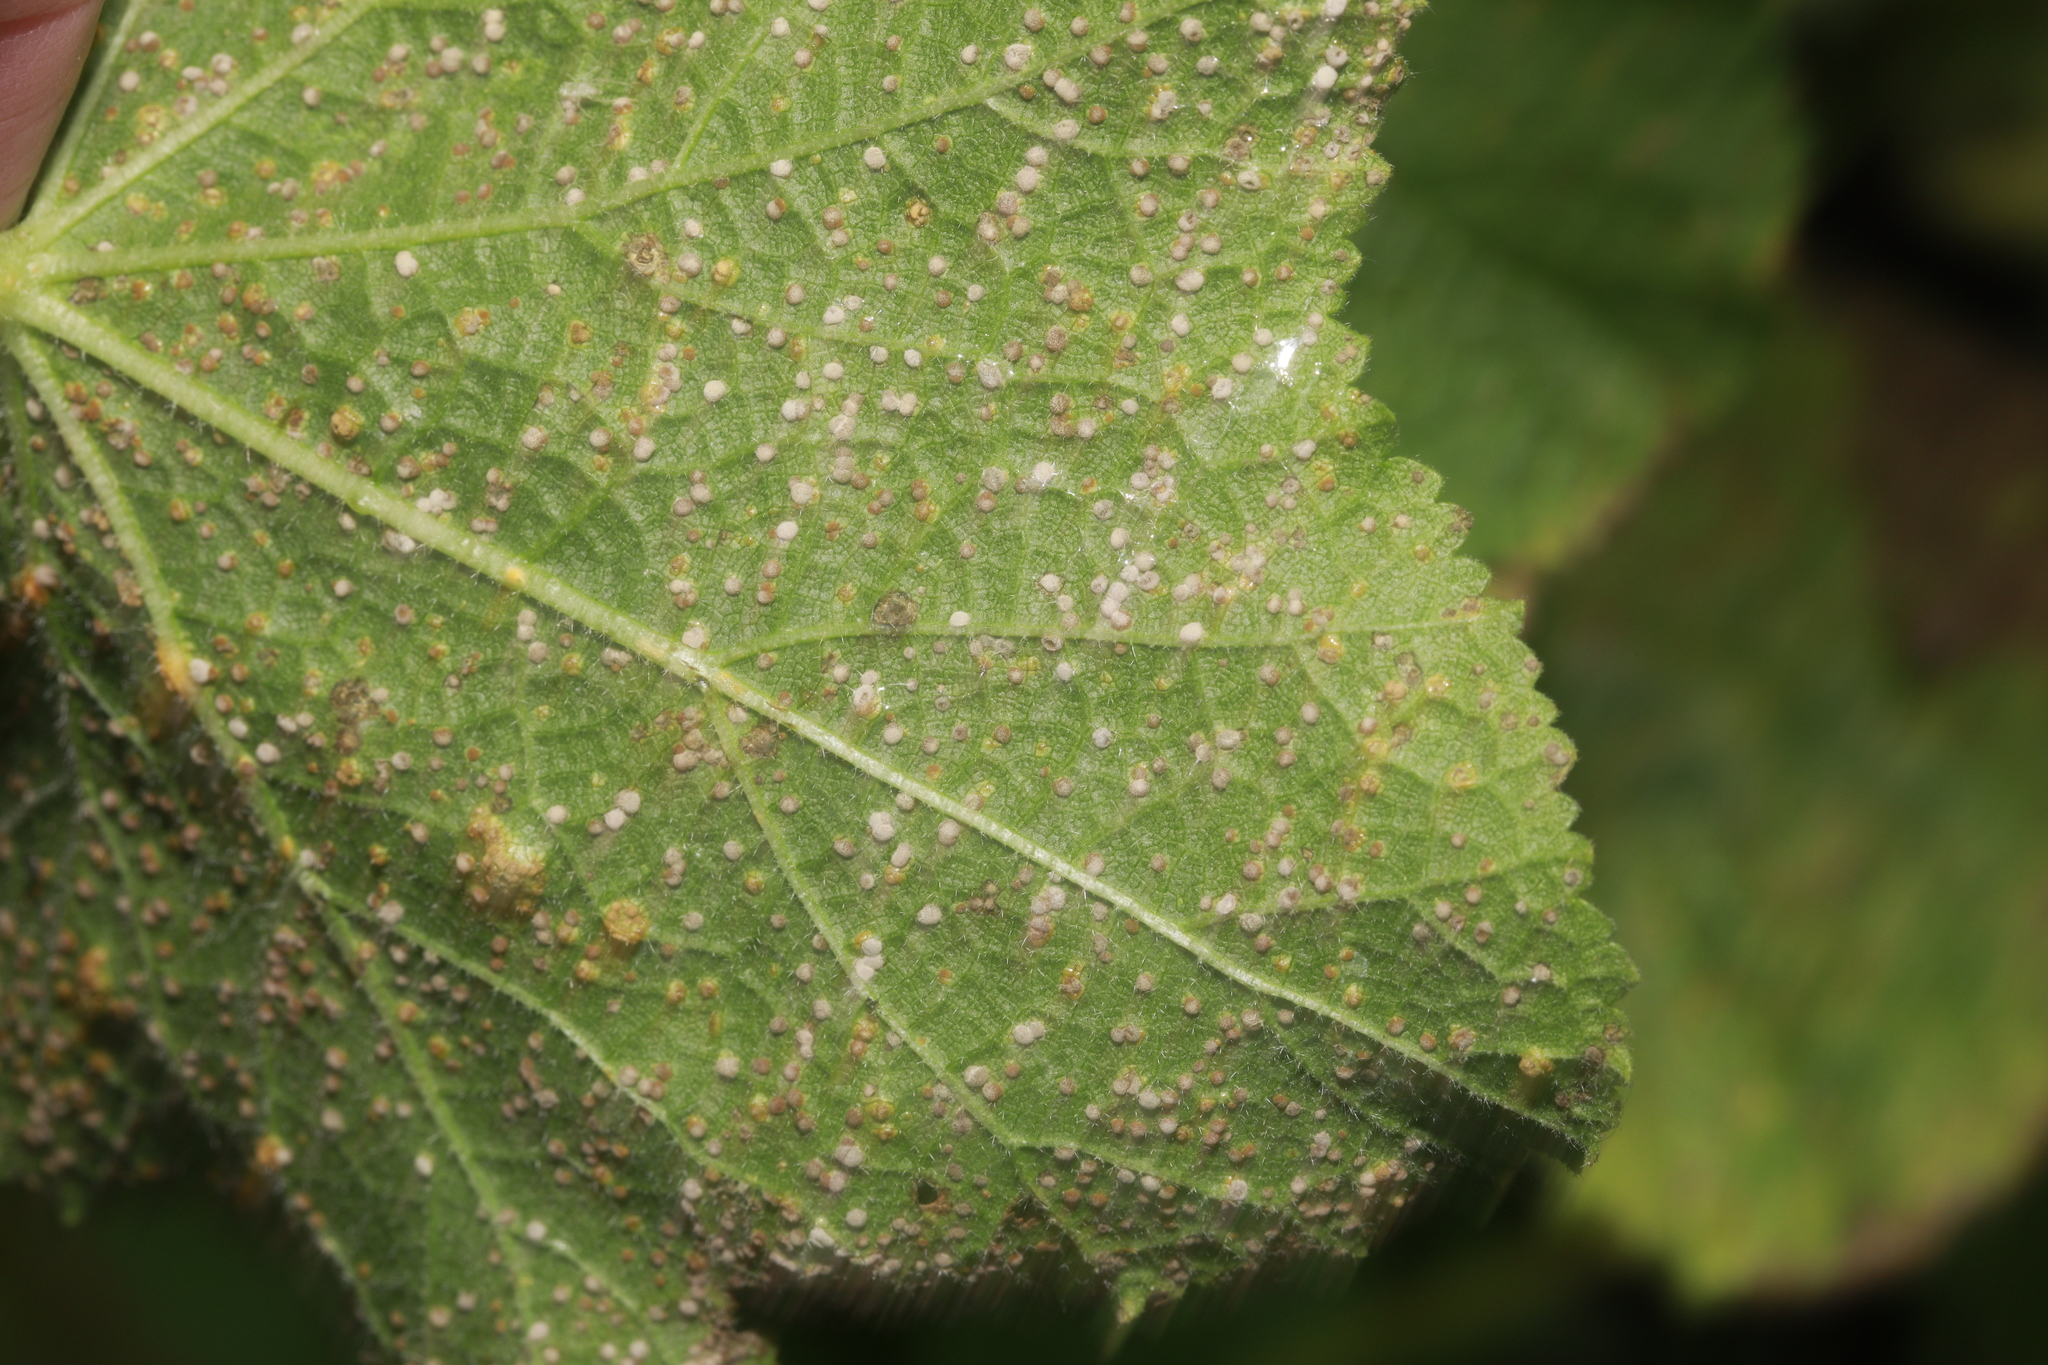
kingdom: Fungi
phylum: Basidiomycota
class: Pucciniomycetes
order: Pucciniales
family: Pucciniaceae
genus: Puccinia
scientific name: Puccinia malvacearum
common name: Hollyhock rust
